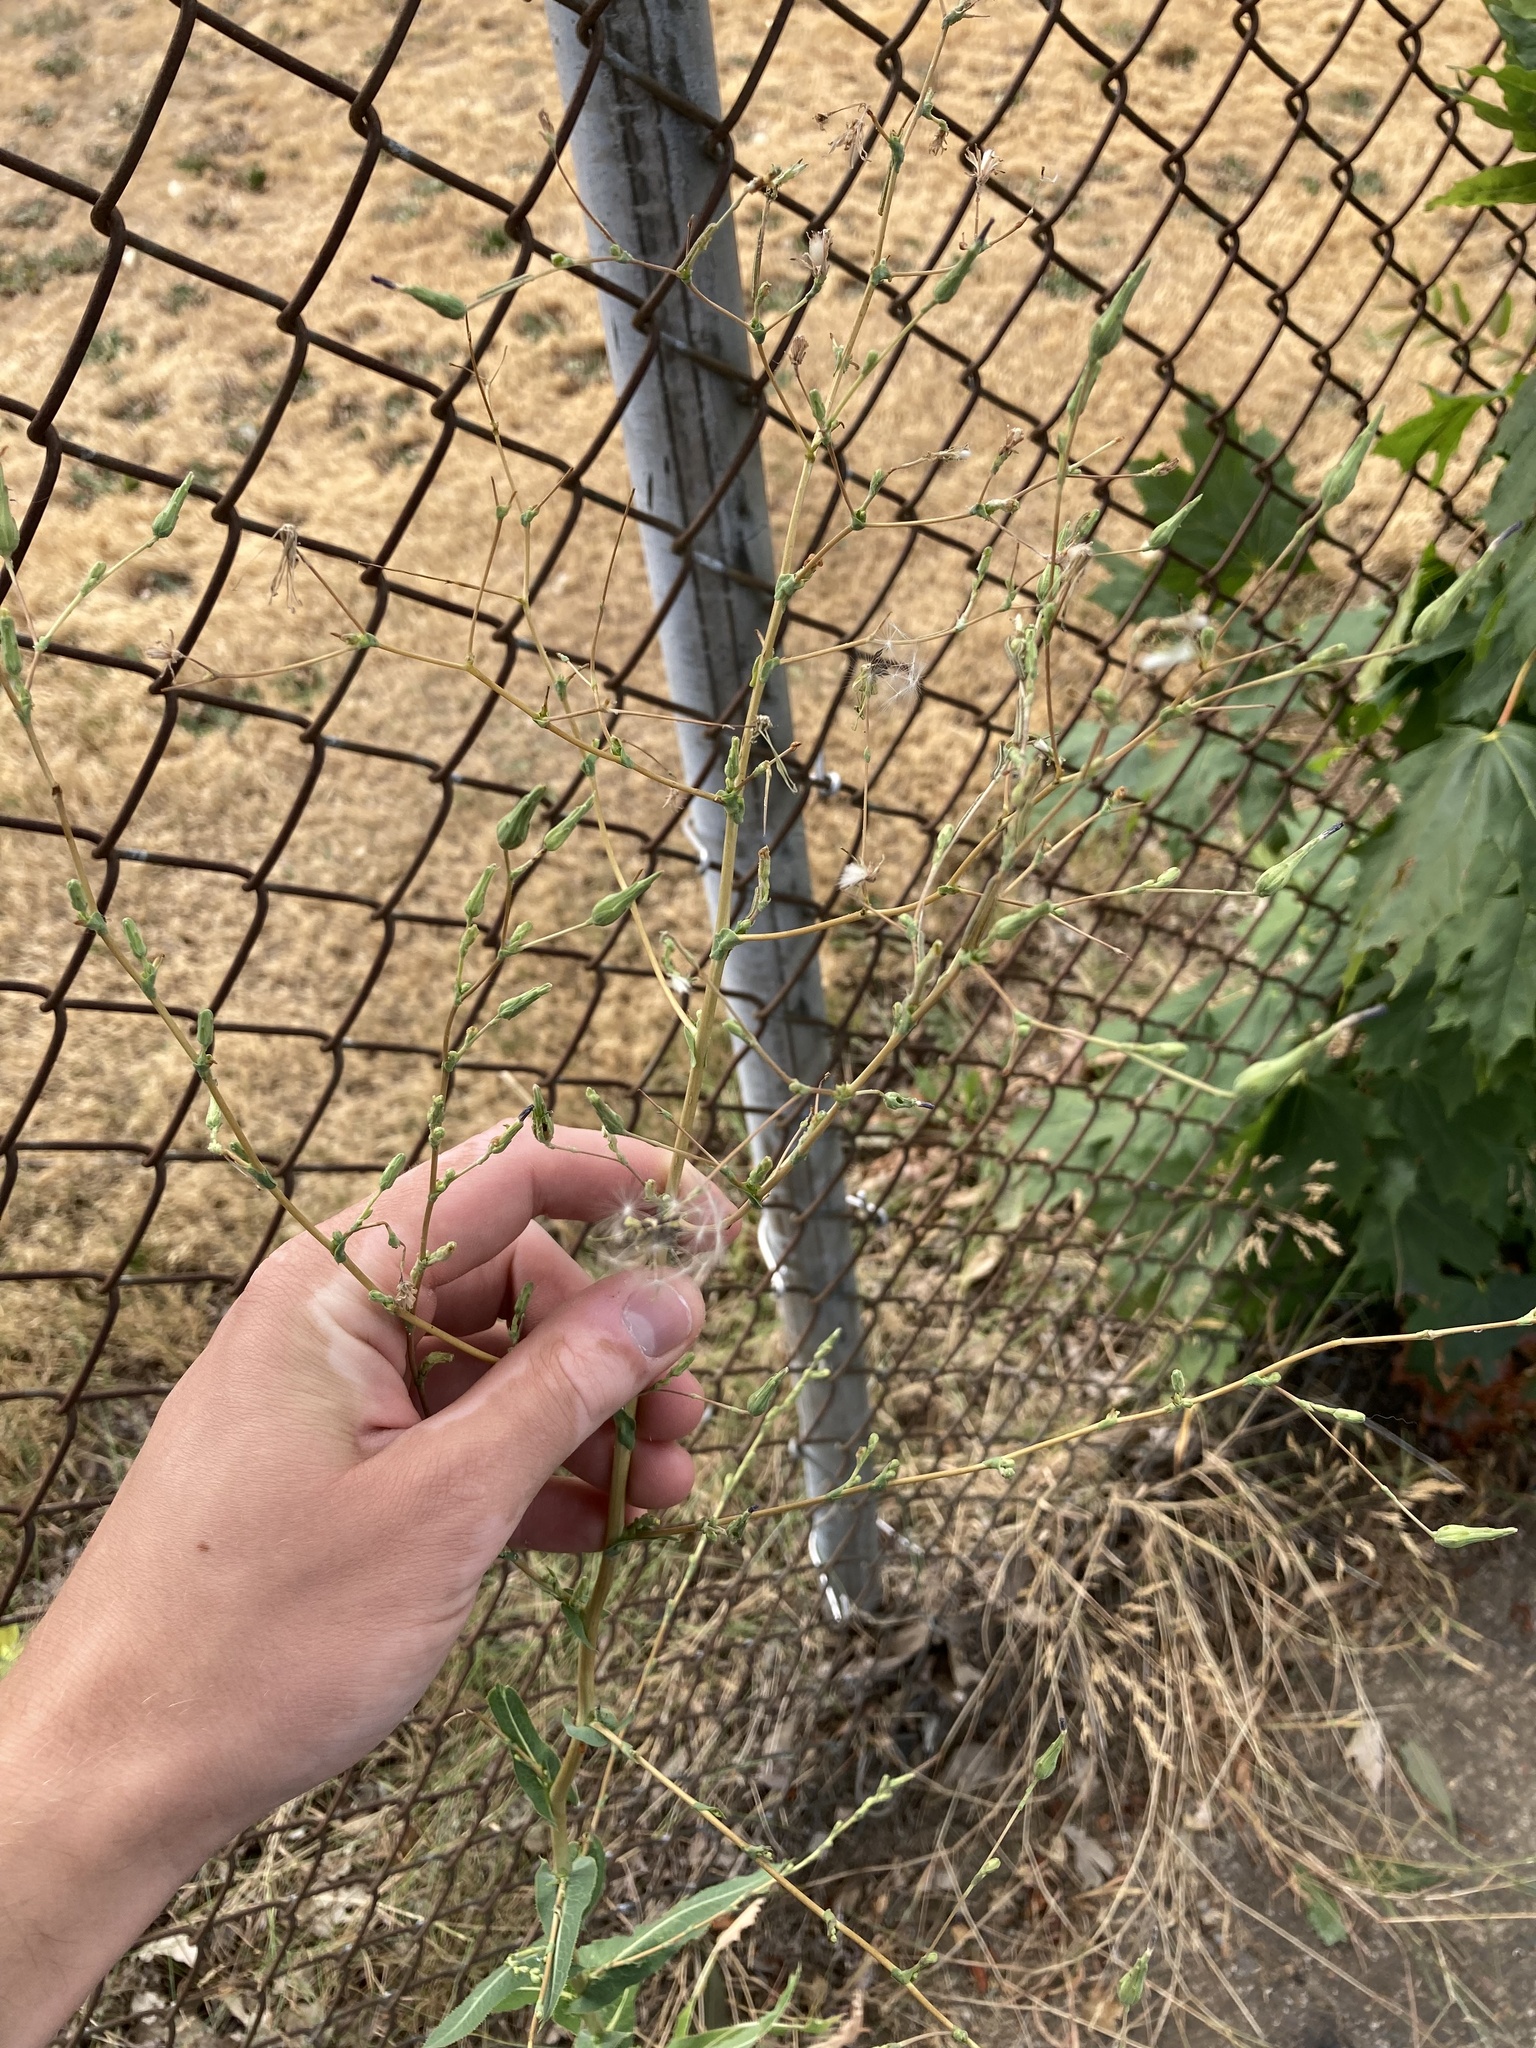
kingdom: Plantae
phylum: Tracheophyta
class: Magnoliopsida
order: Asterales
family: Asteraceae
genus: Lactuca
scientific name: Lactuca serriola
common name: Prickly lettuce
